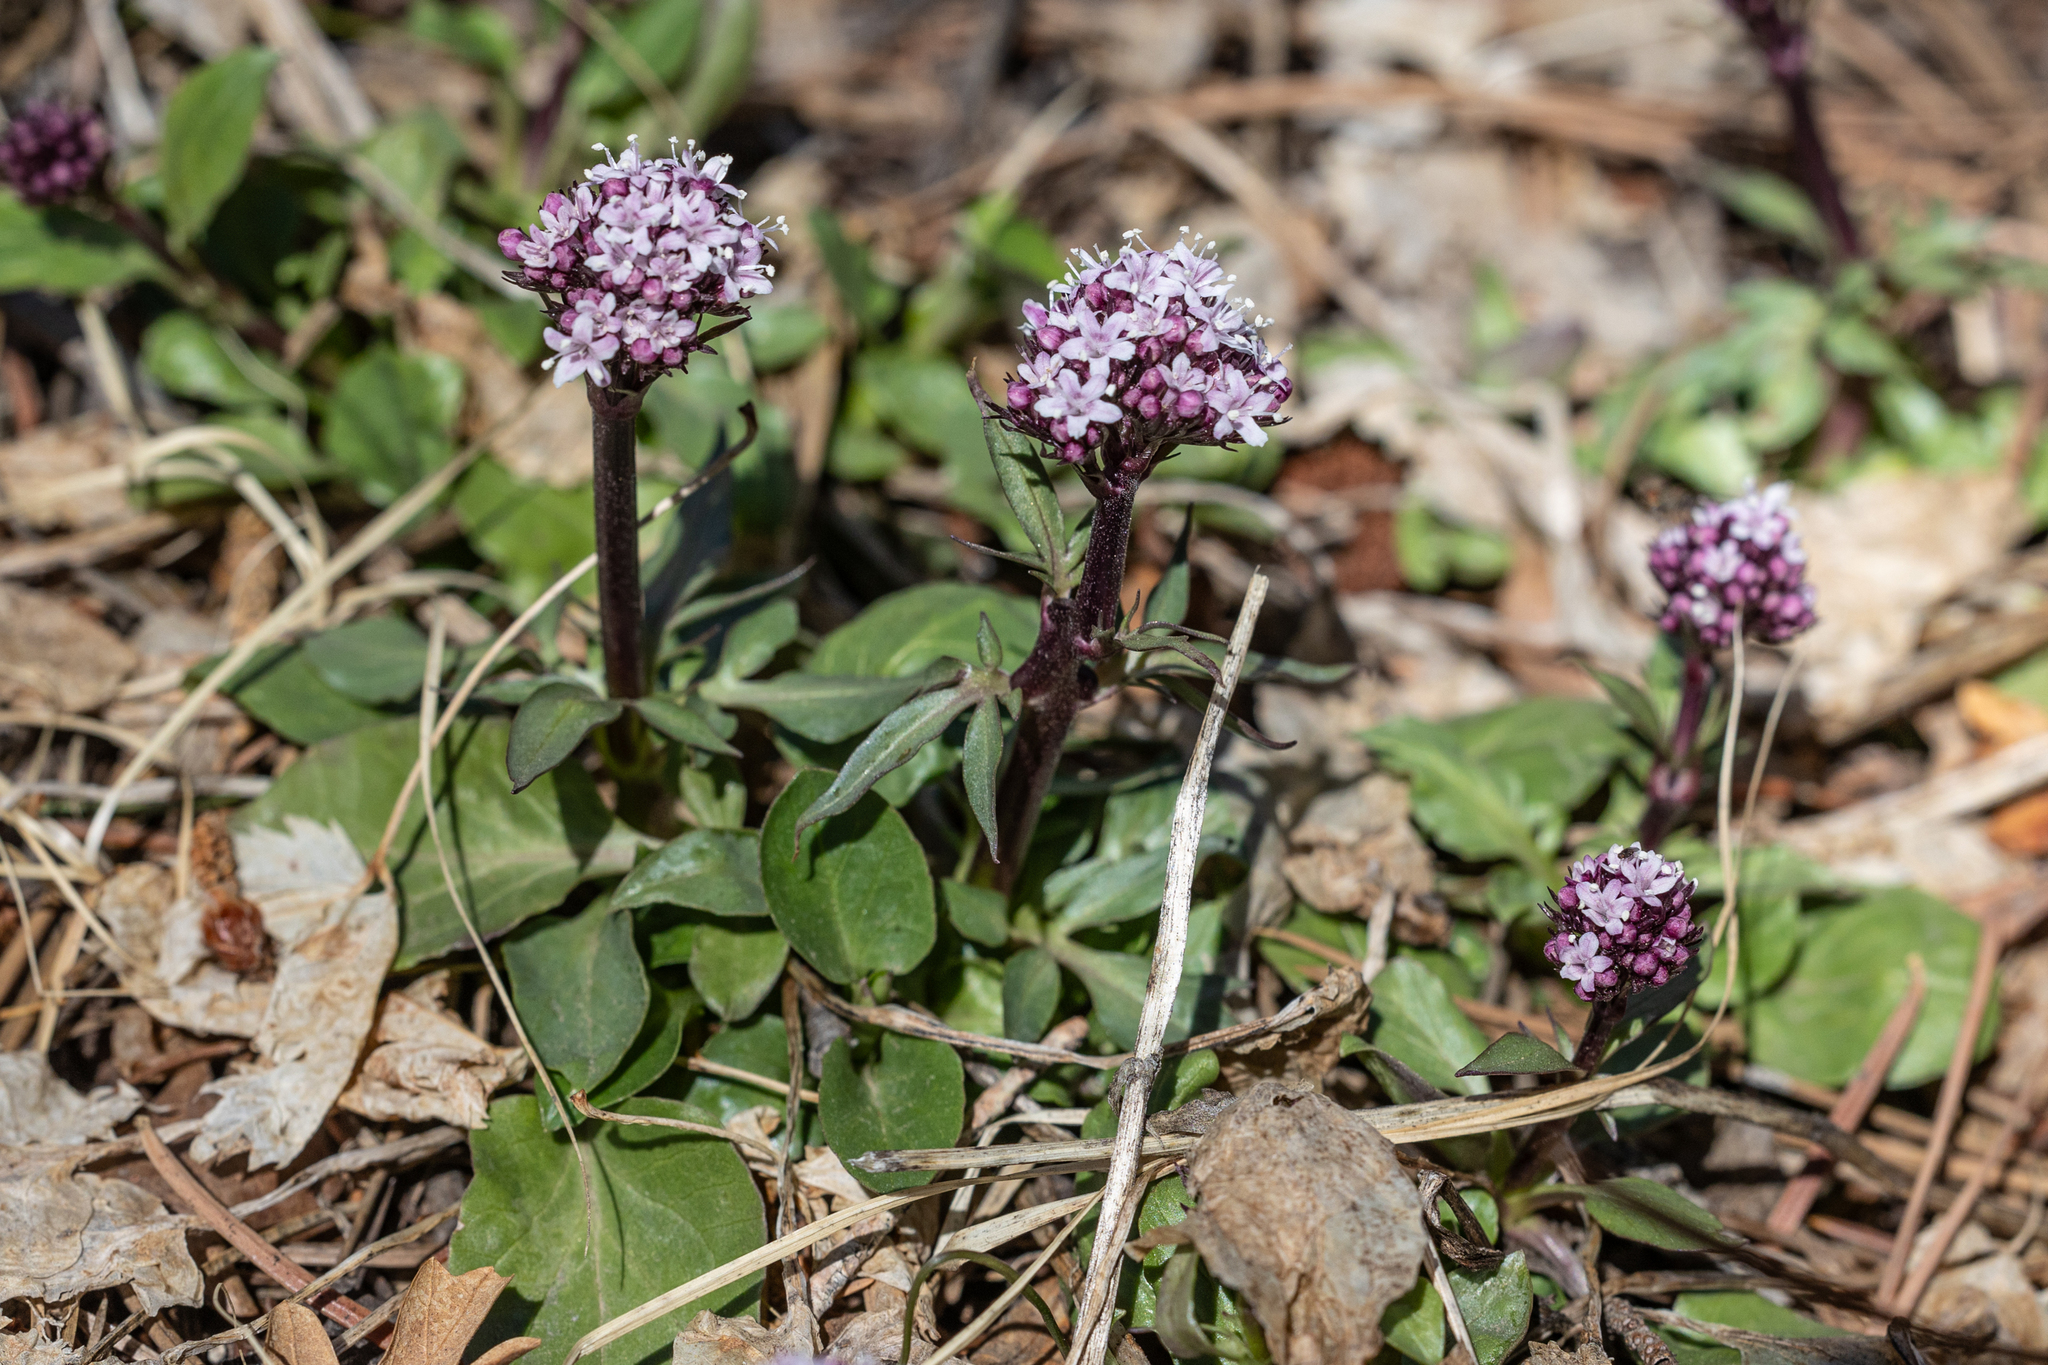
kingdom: Plantae
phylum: Tracheophyta
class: Magnoliopsida
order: Dipsacales
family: Caprifoliaceae
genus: Valeriana
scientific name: Valeriana arizonica
